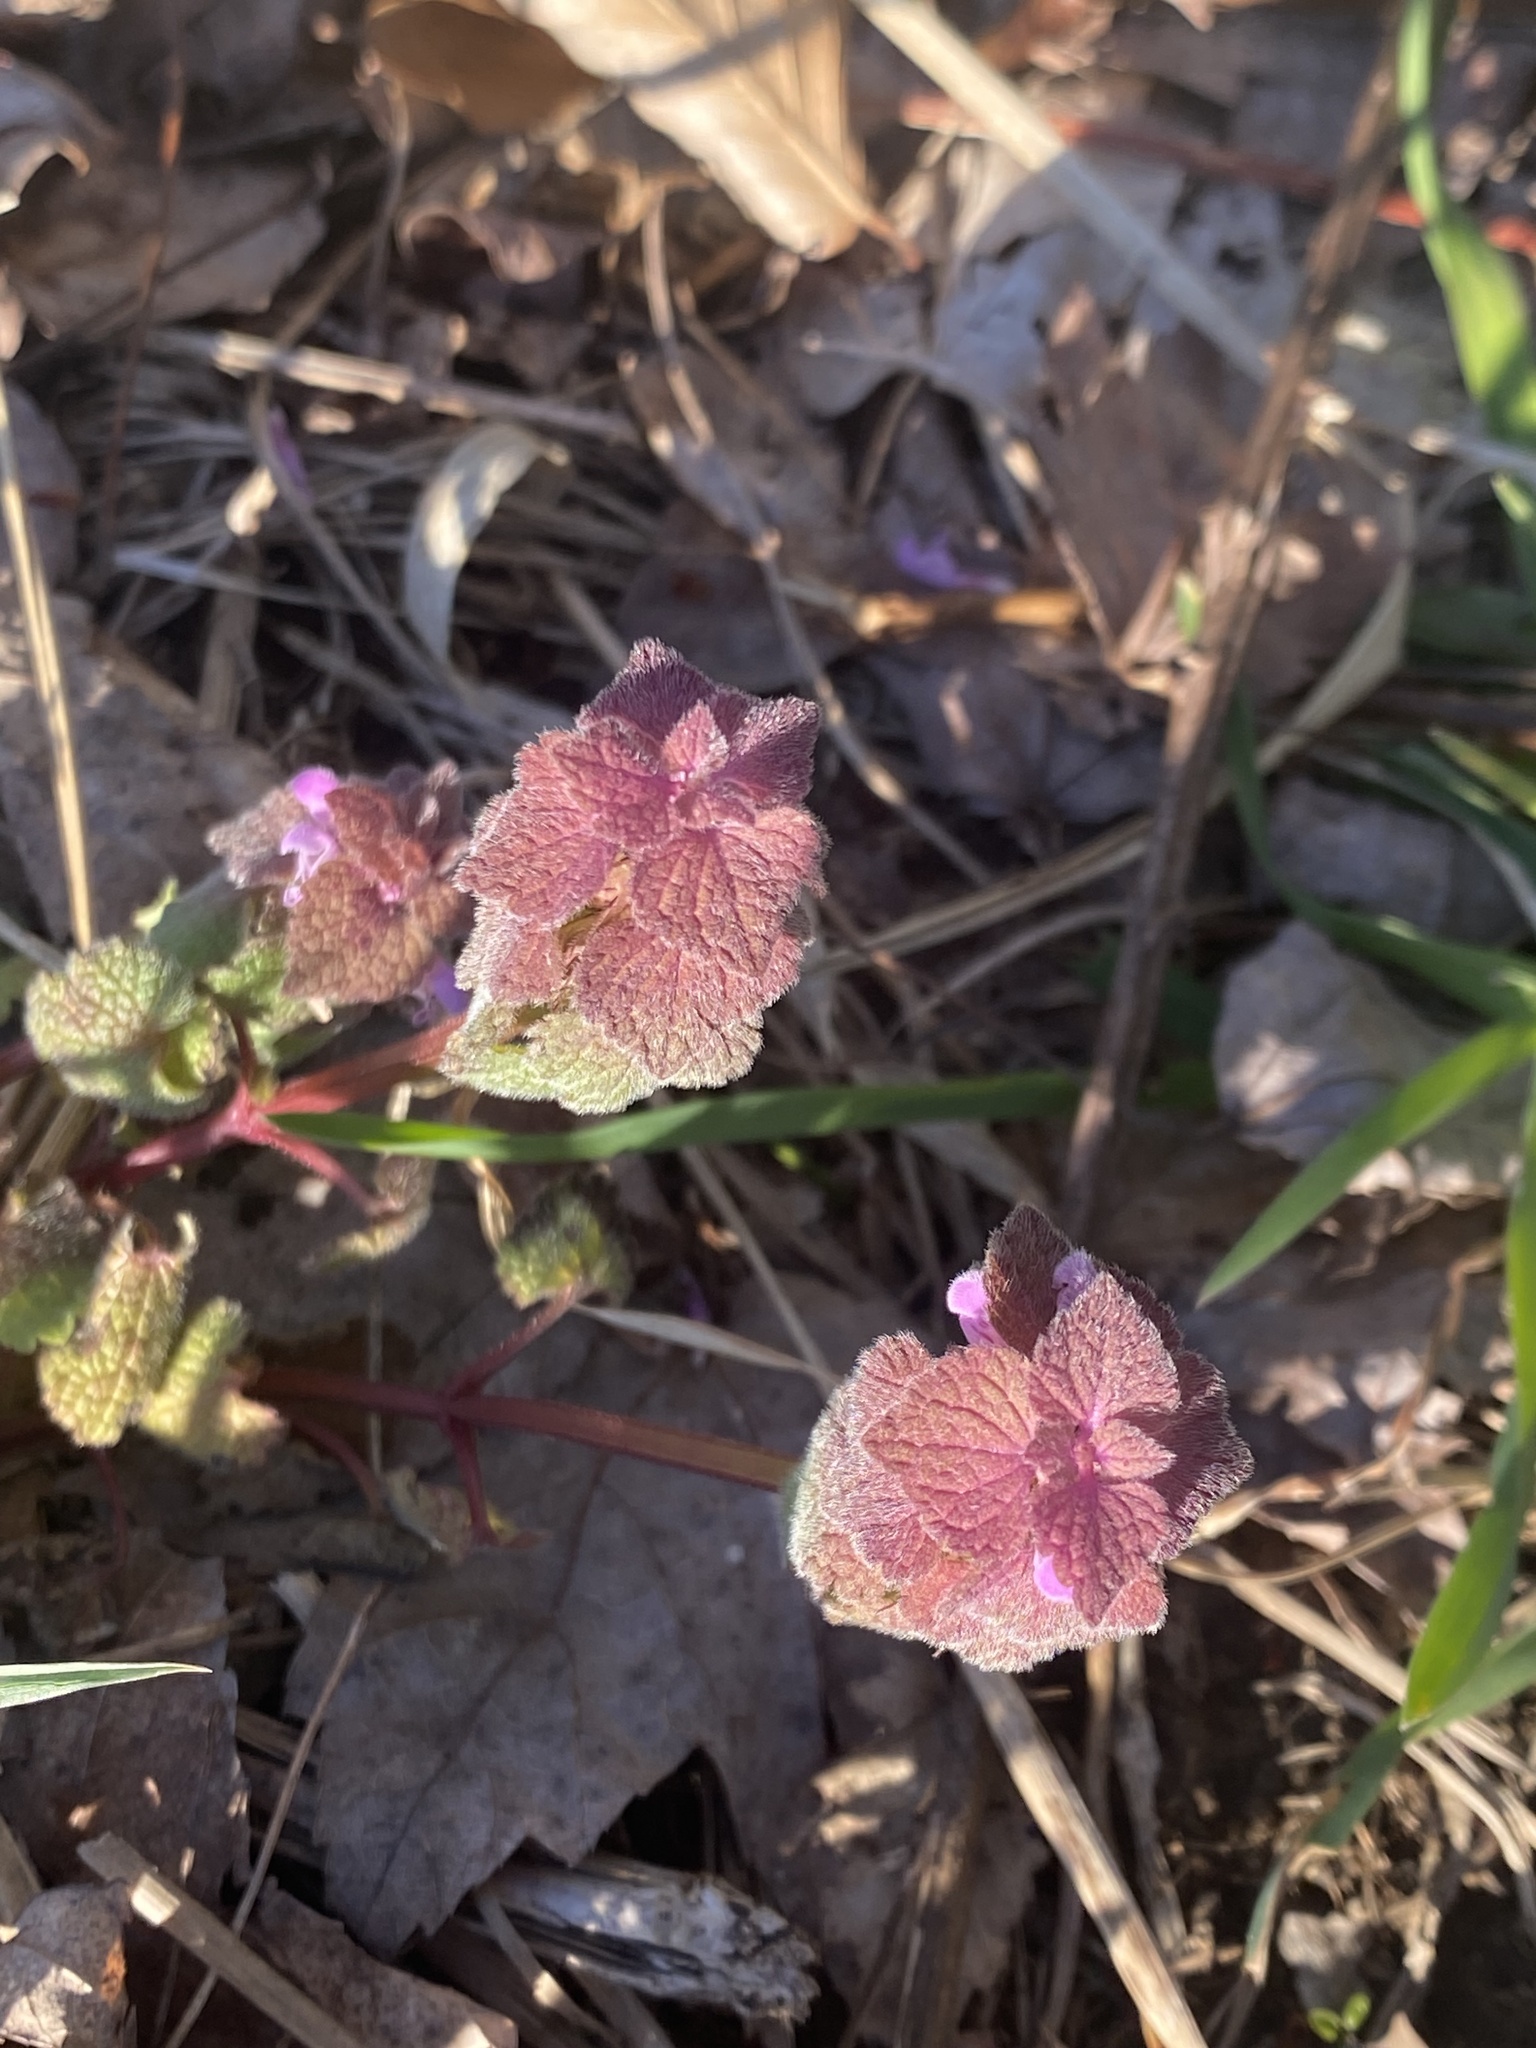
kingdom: Plantae
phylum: Tracheophyta
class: Magnoliopsida
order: Lamiales
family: Lamiaceae
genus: Lamium
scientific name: Lamium purpureum
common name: Red dead-nettle
